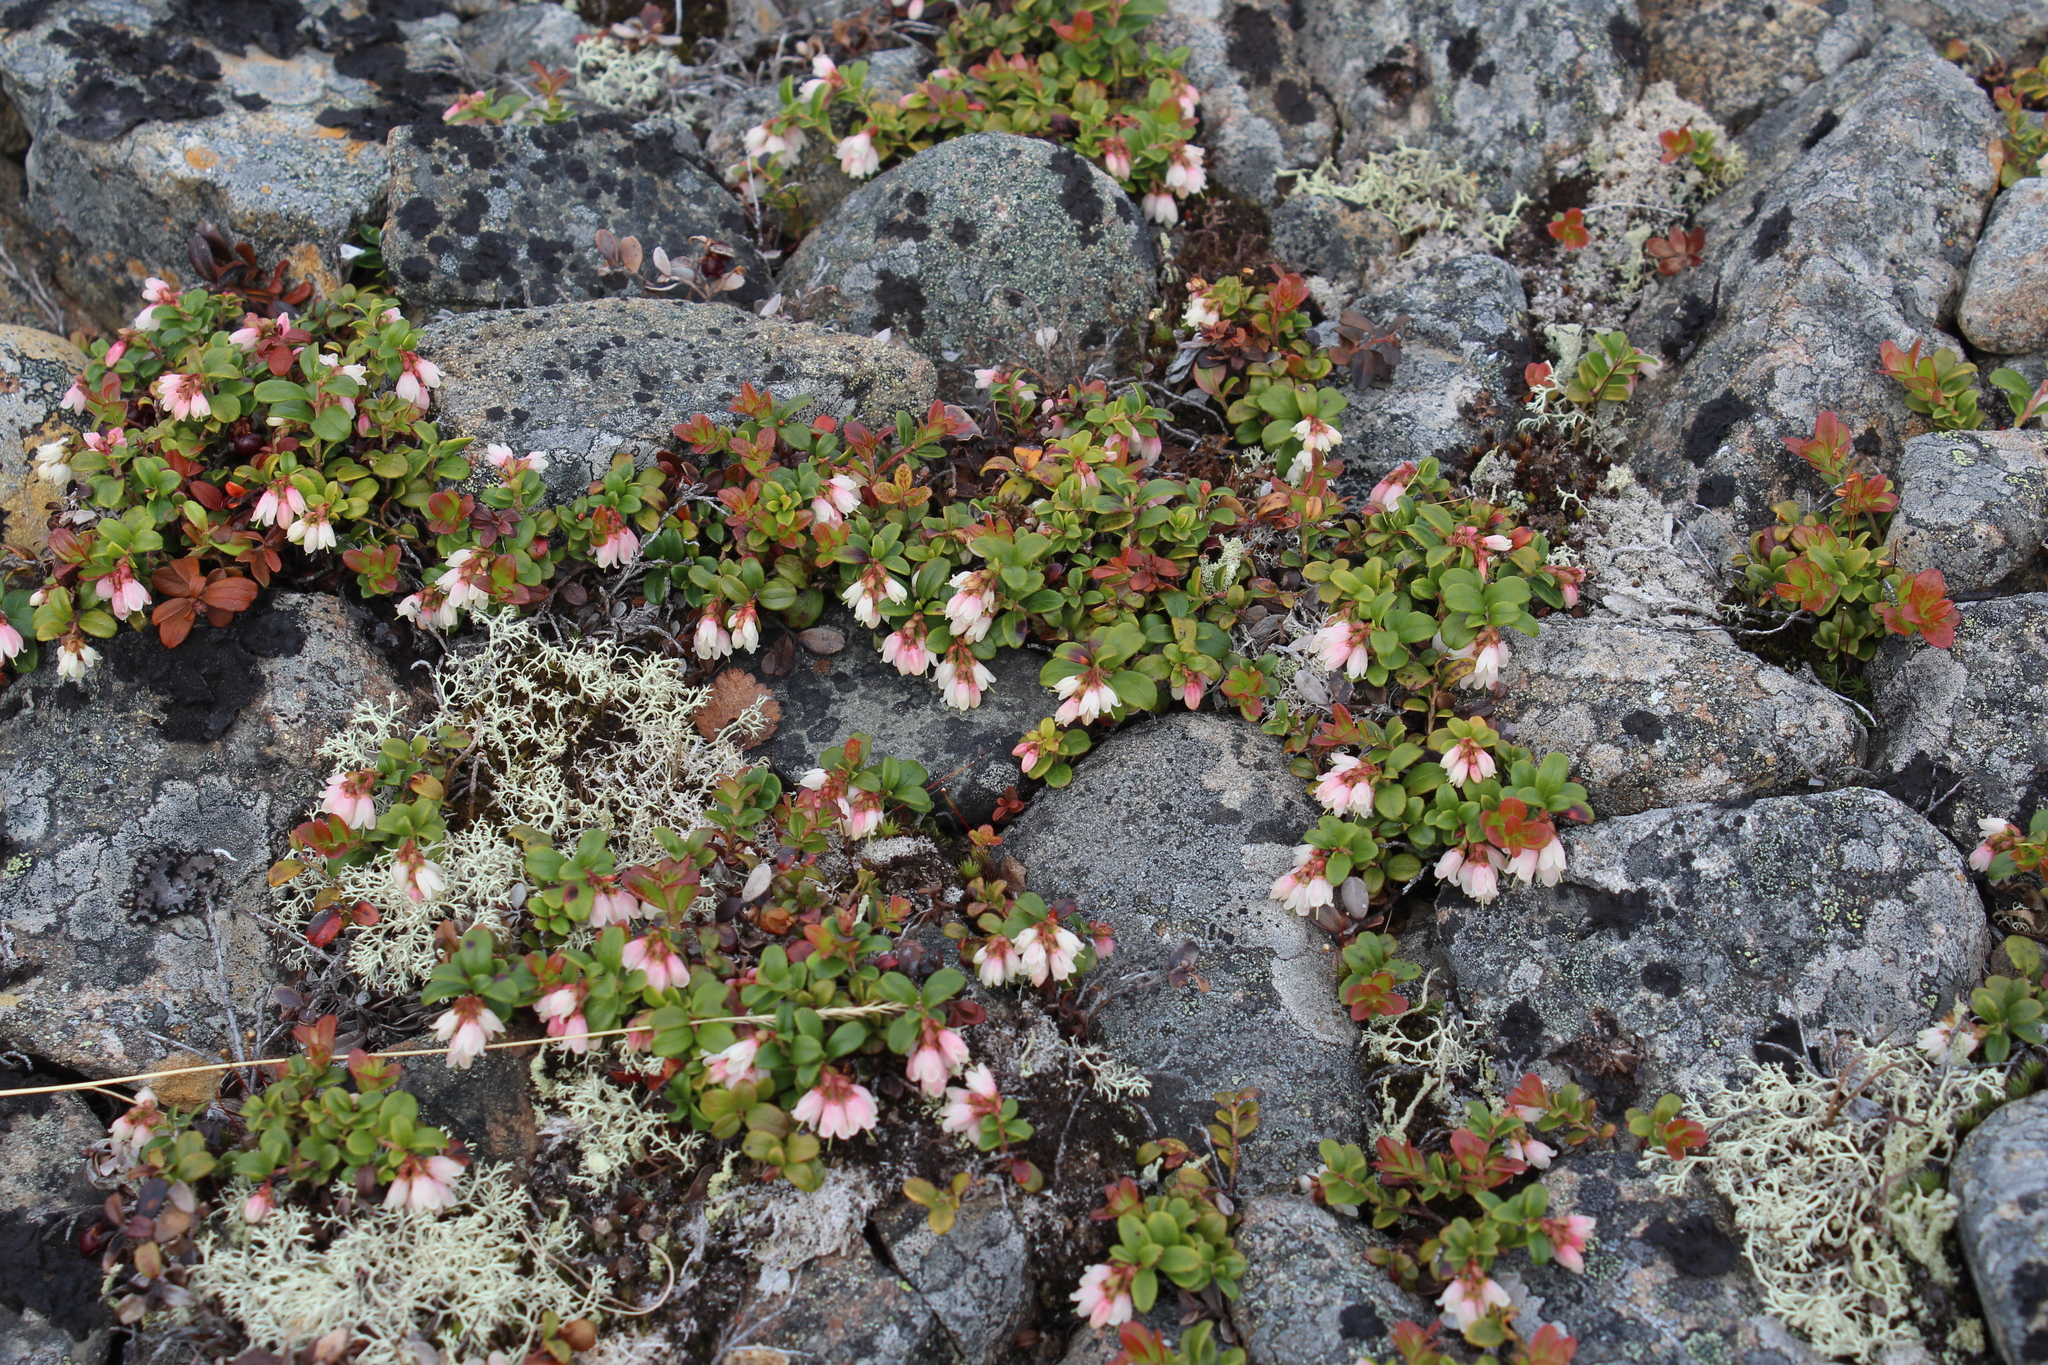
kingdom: Plantae
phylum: Tracheophyta
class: Magnoliopsida
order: Ericales
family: Ericaceae
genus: Vaccinium
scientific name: Vaccinium vitis-idaea
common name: Cowberry
